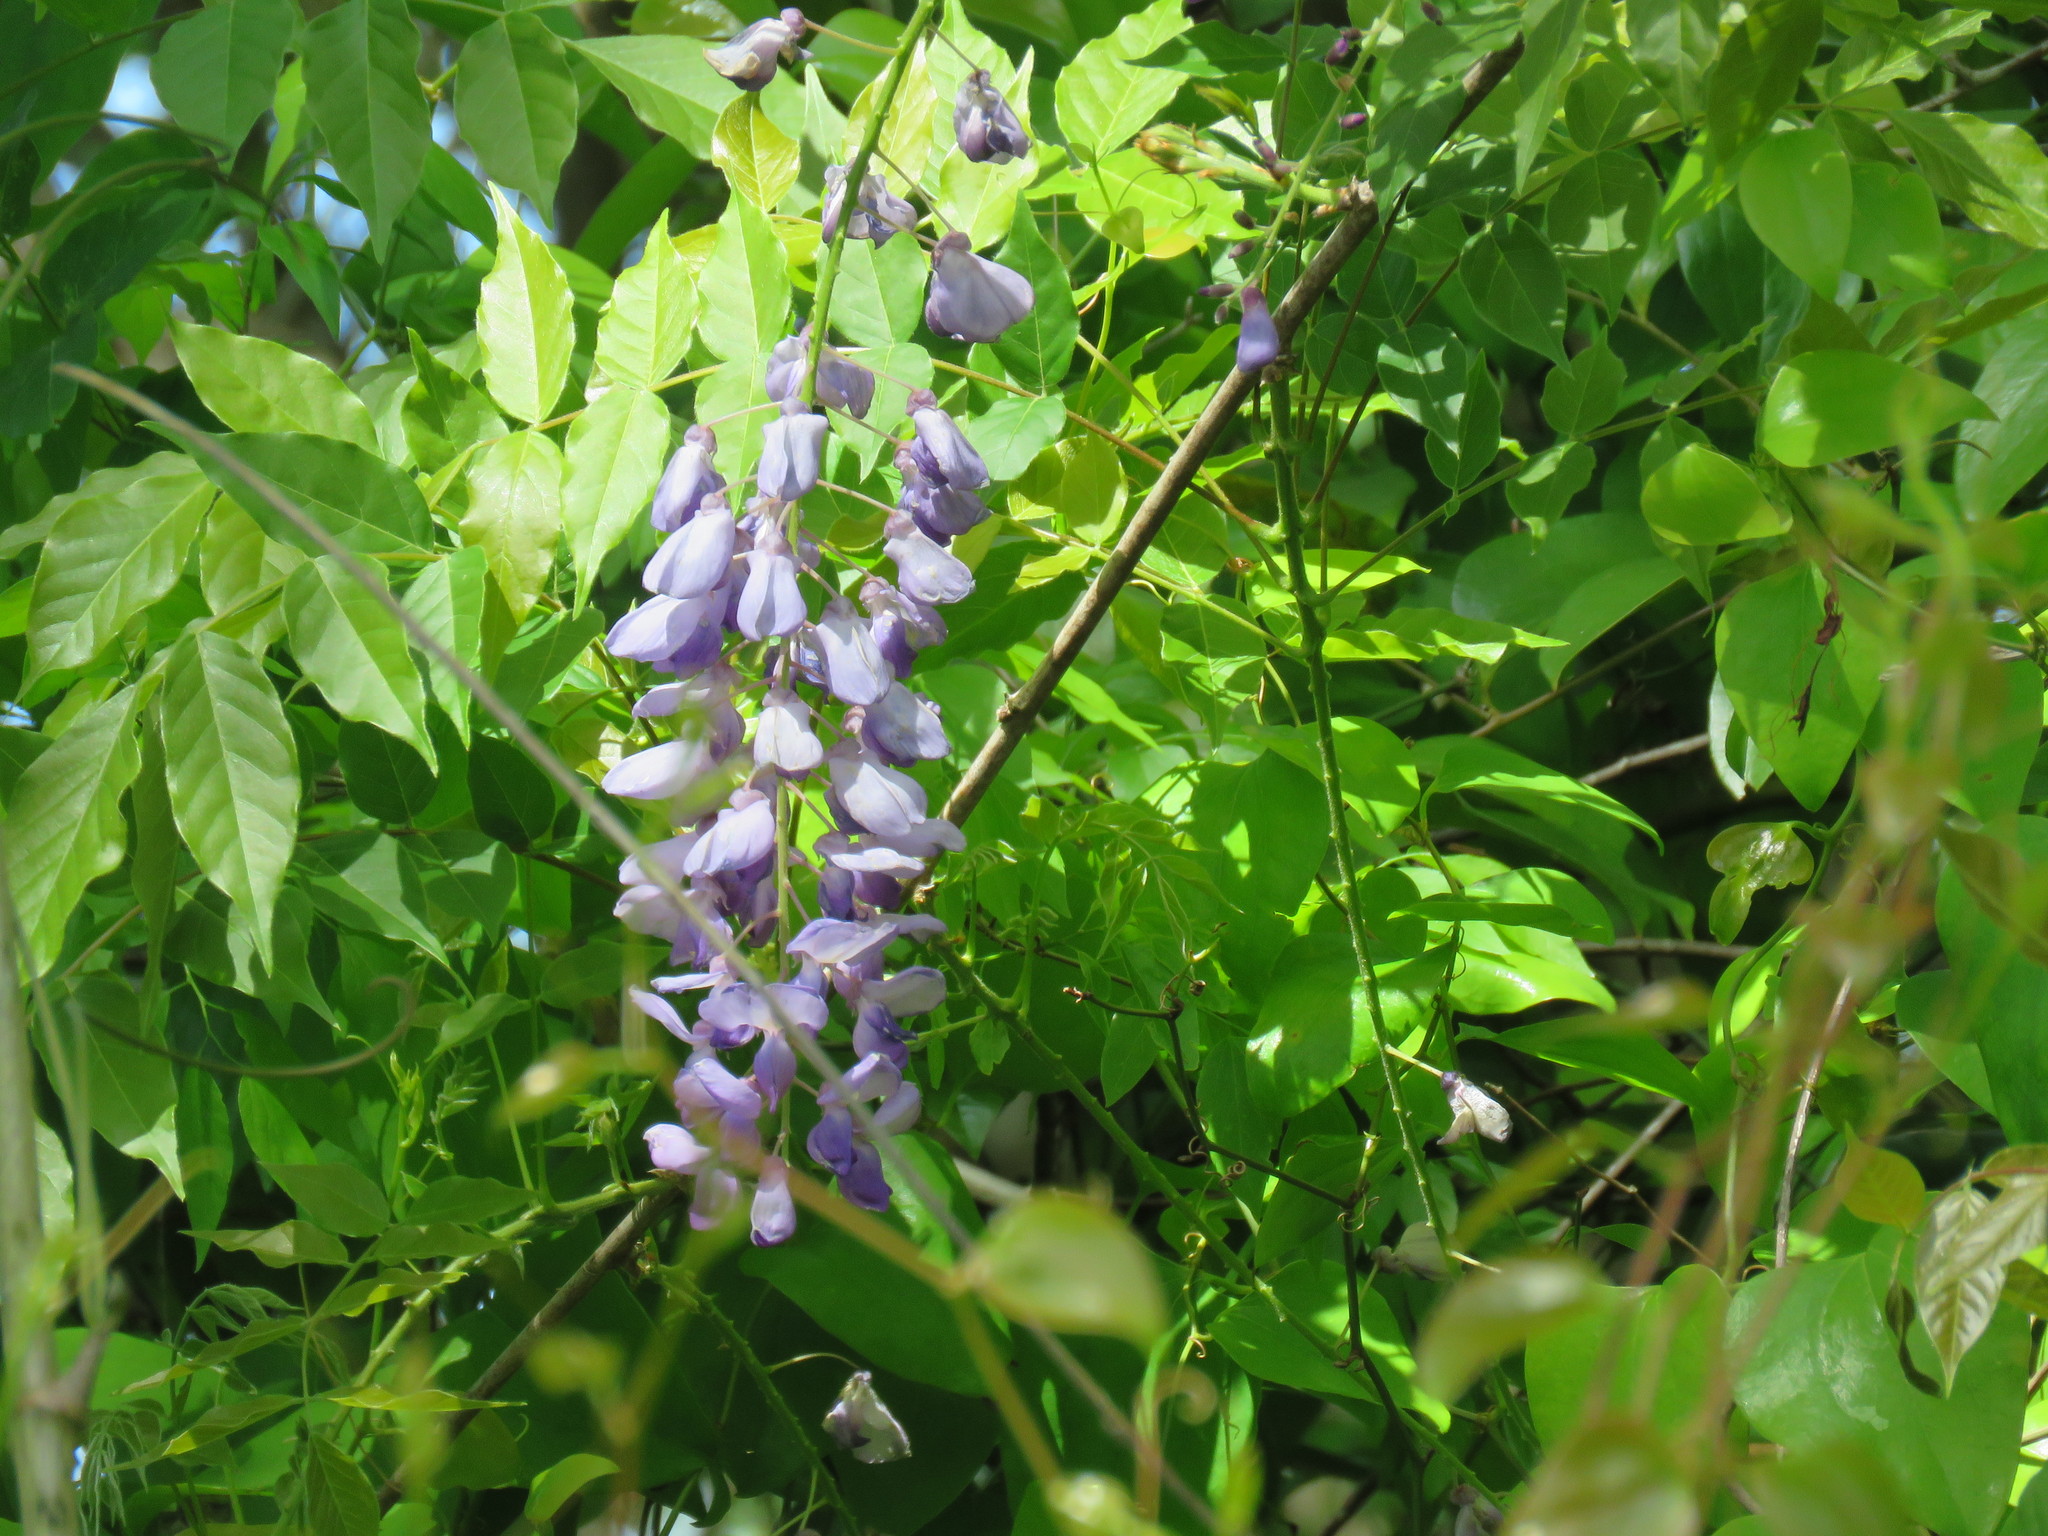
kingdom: Plantae
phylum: Tracheophyta
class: Magnoliopsida
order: Fabales
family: Fabaceae
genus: Wisteria
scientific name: Wisteria sinensis
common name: Chinese wisteria
